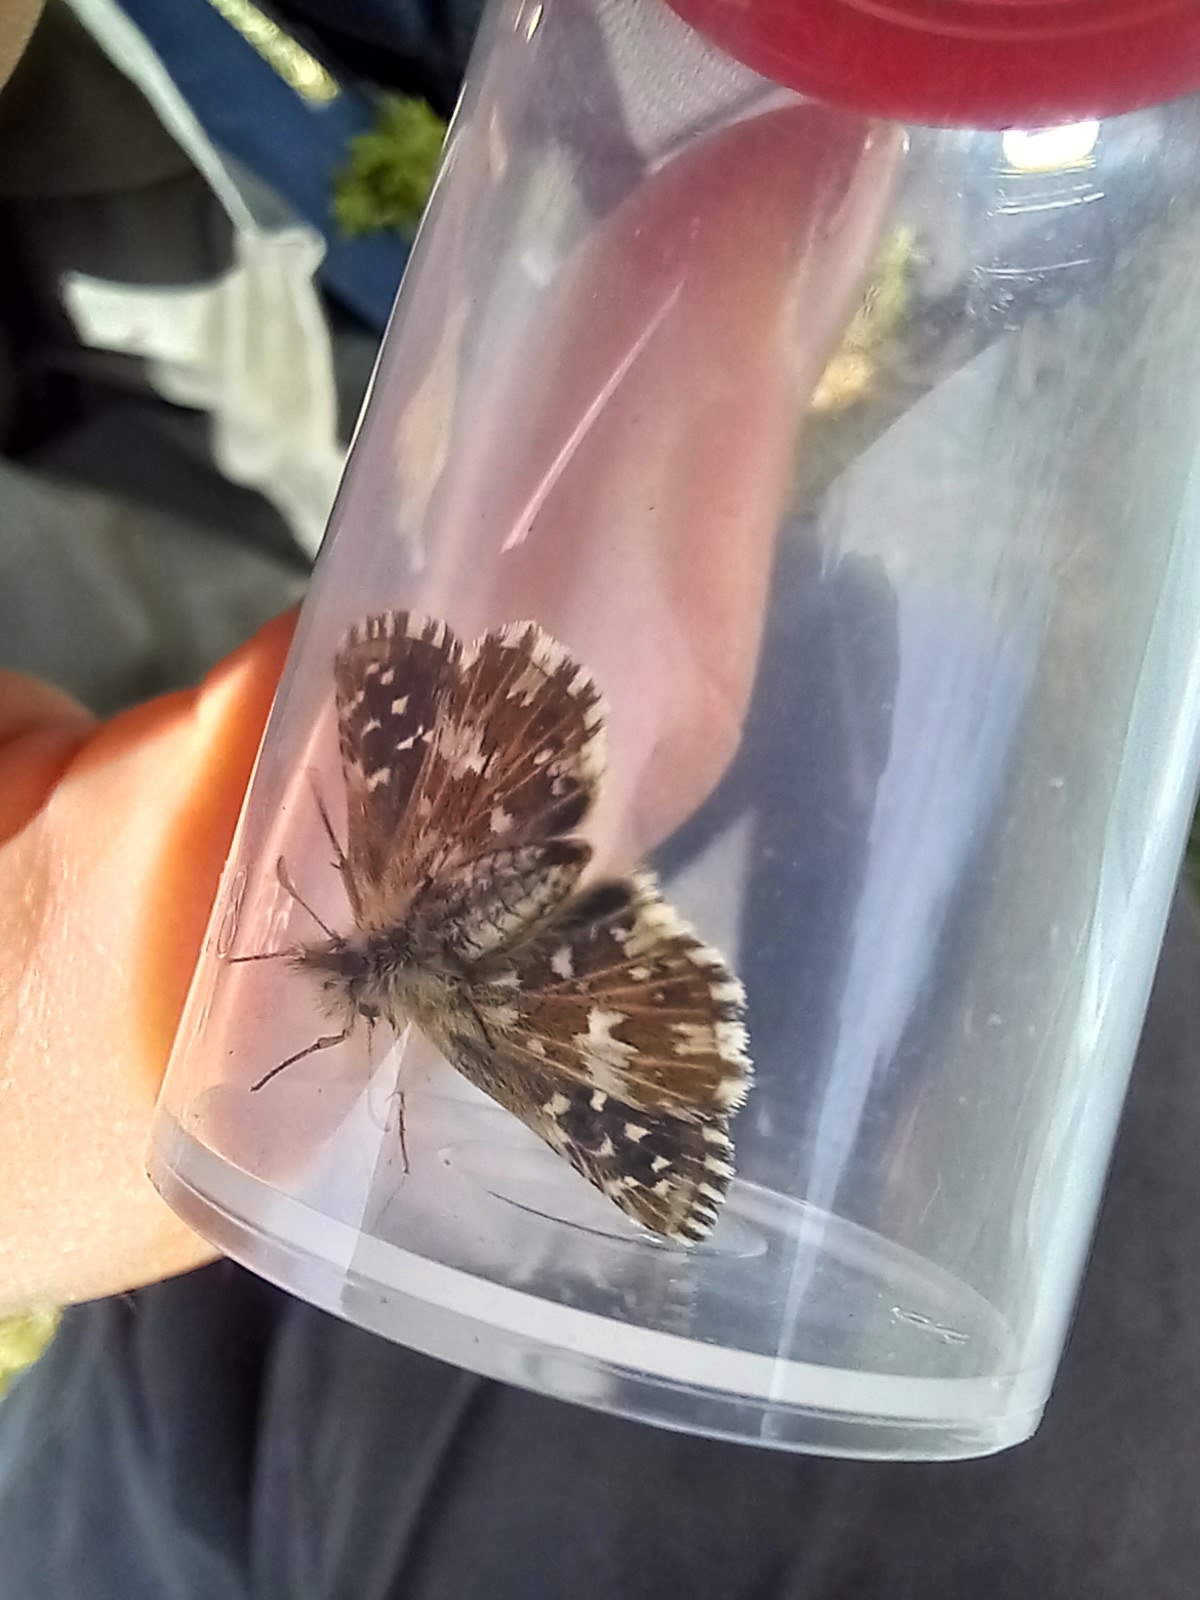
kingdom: Animalia
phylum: Arthropoda
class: Insecta
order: Lepidoptera
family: Hesperiidae
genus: Pyrgus
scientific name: Pyrgus malvae
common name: Grizzled skipper
